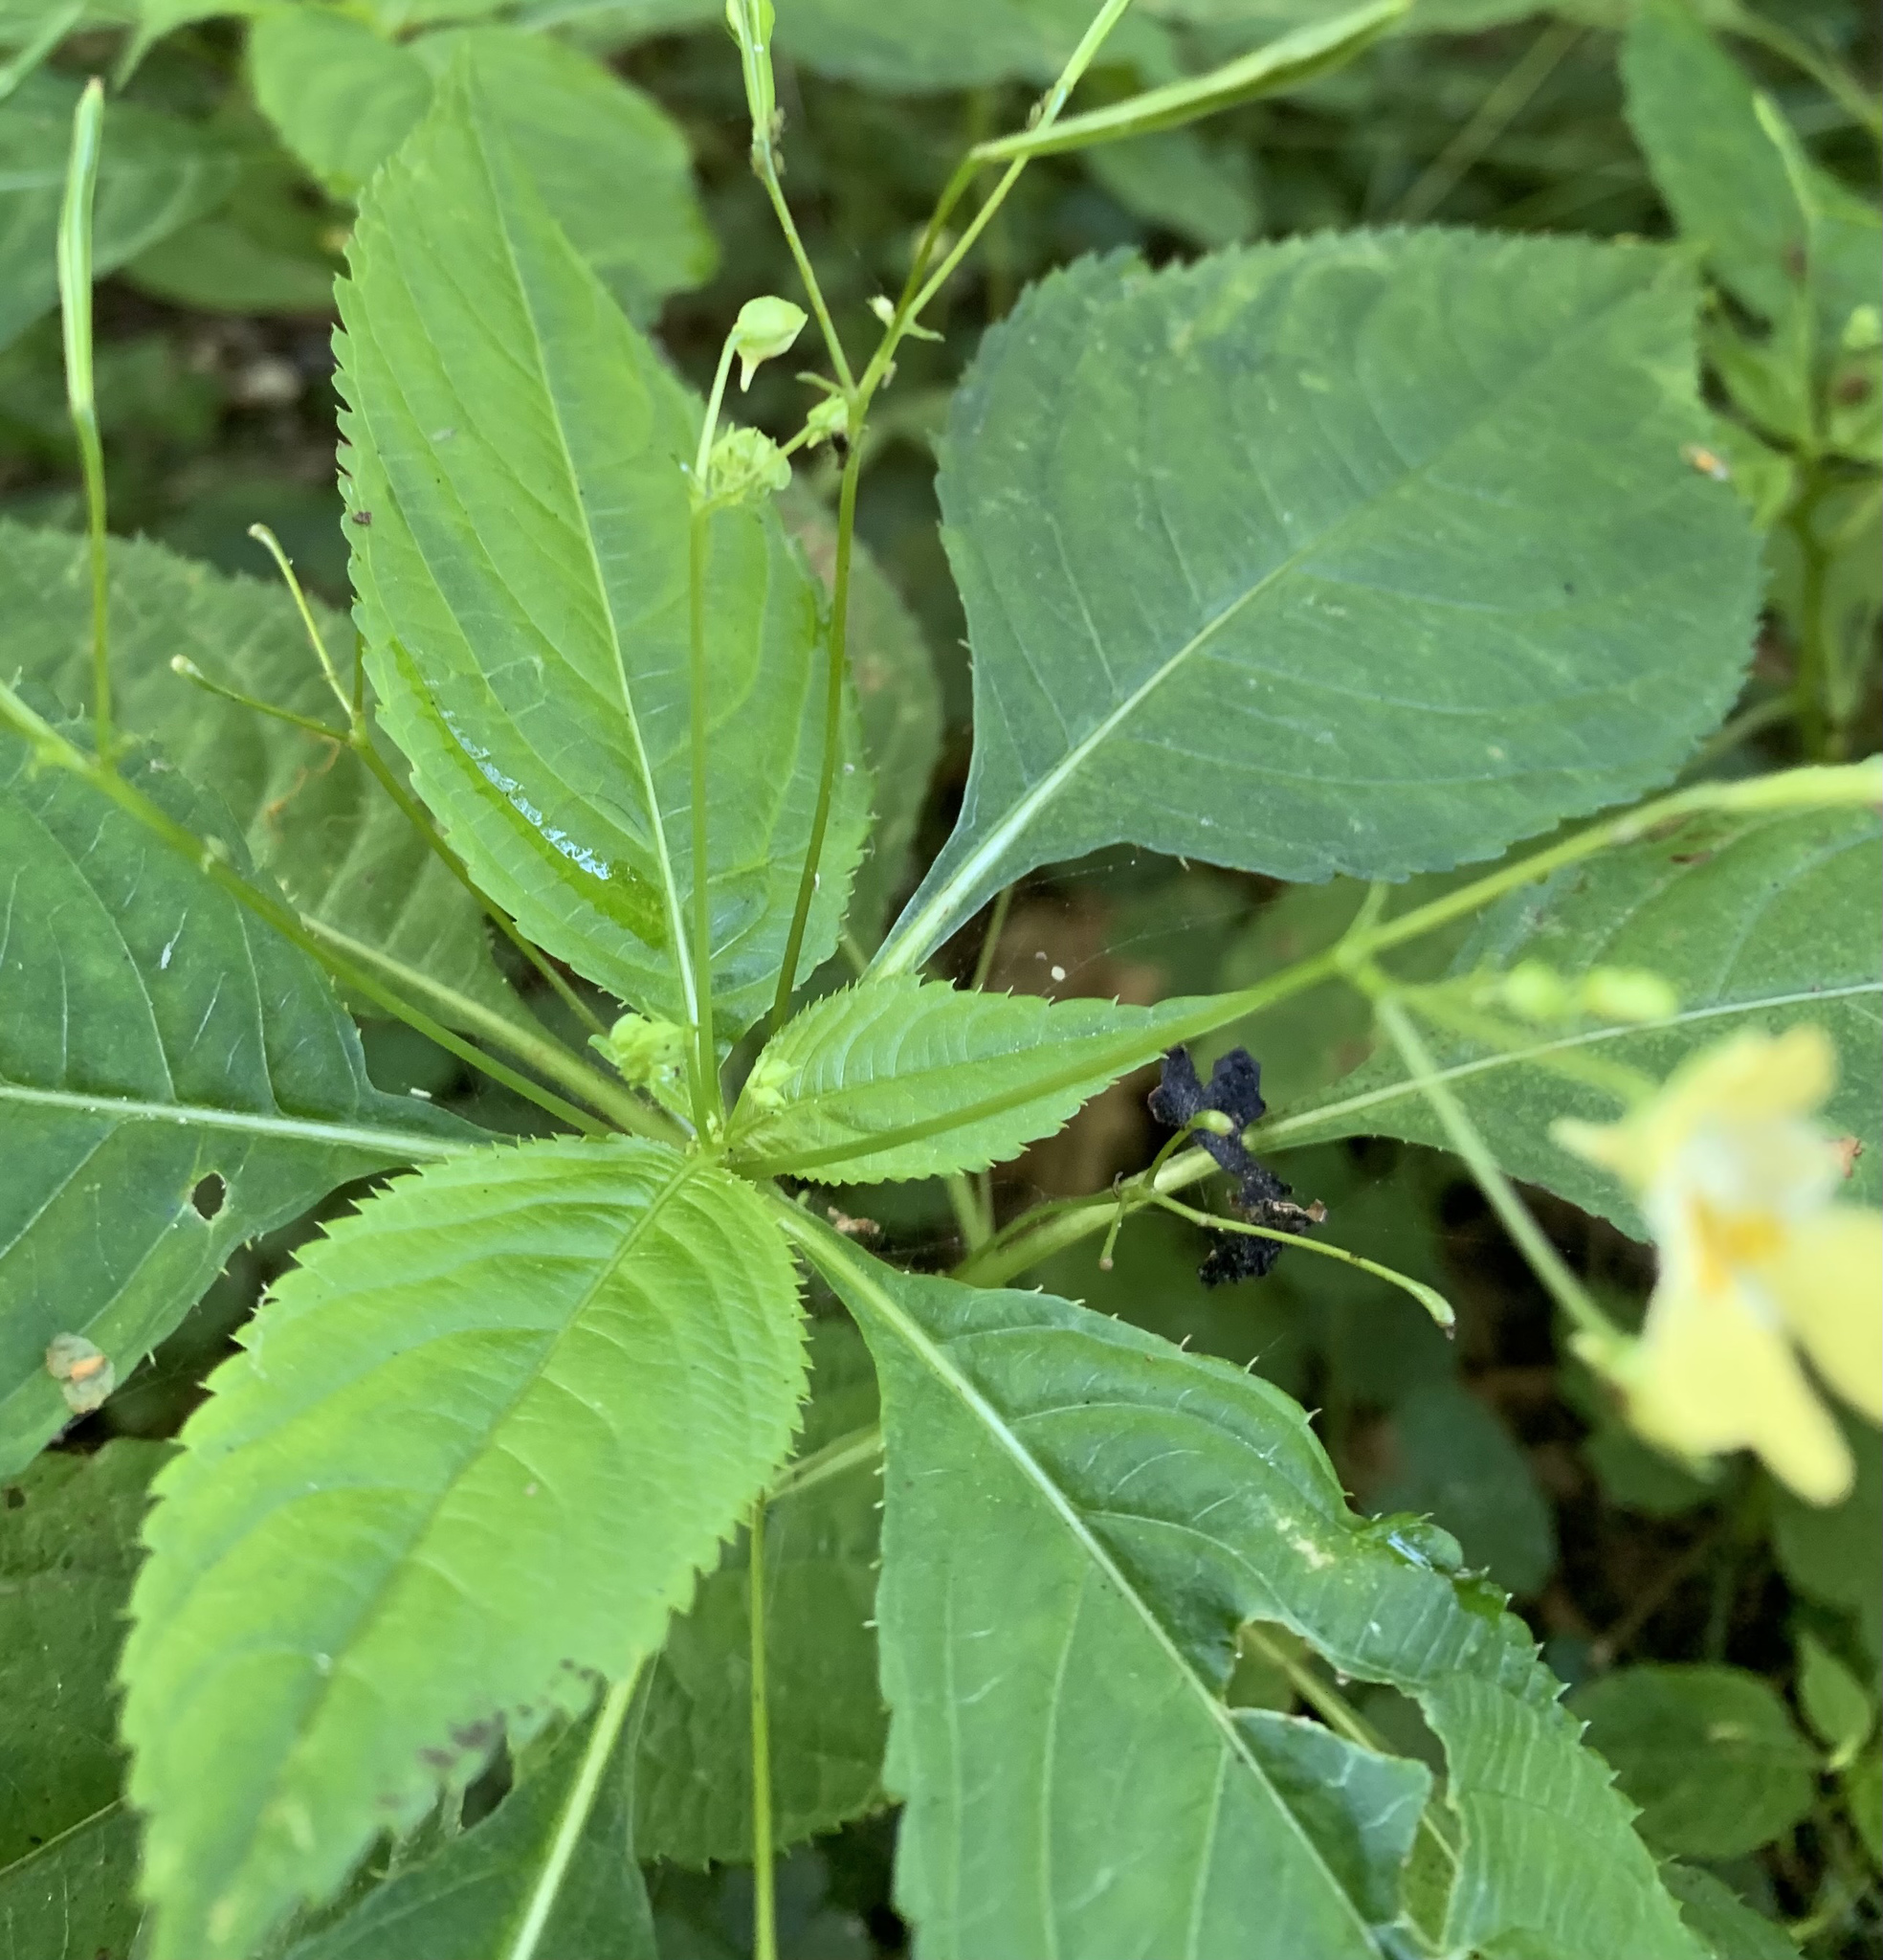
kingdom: Plantae
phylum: Tracheophyta
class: Magnoliopsida
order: Ericales
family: Balsaminaceae
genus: Impatiens
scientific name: Impatiens parviflora
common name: Small balsam
